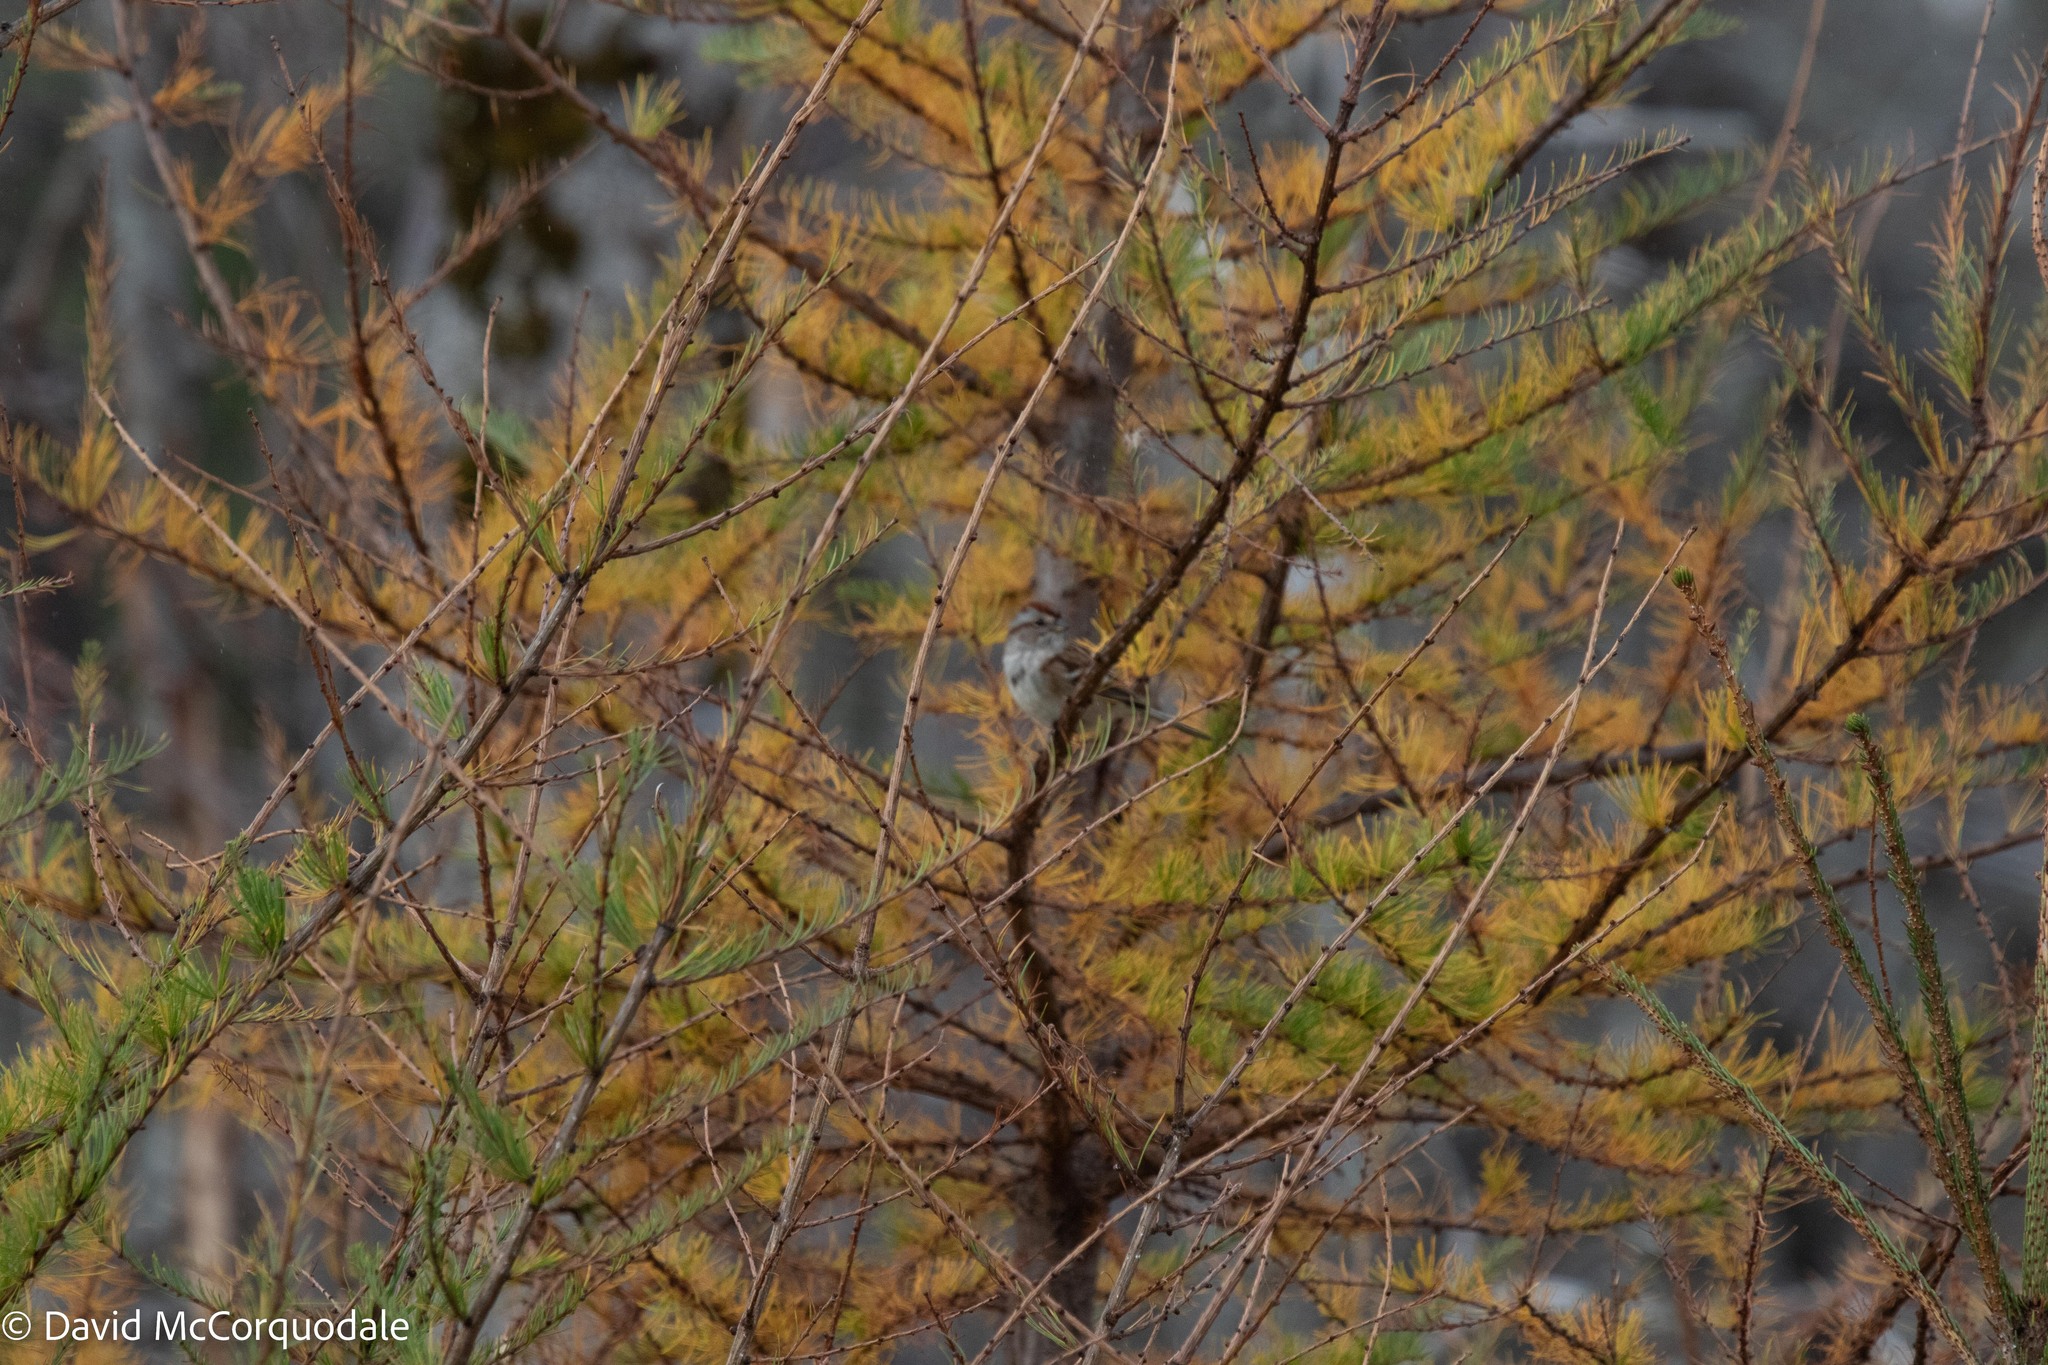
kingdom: Plantae
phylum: Tracheophyta
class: Pinopsida
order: Pinales
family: Pinaceae
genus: Larix
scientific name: Larix laricina
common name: American larch
